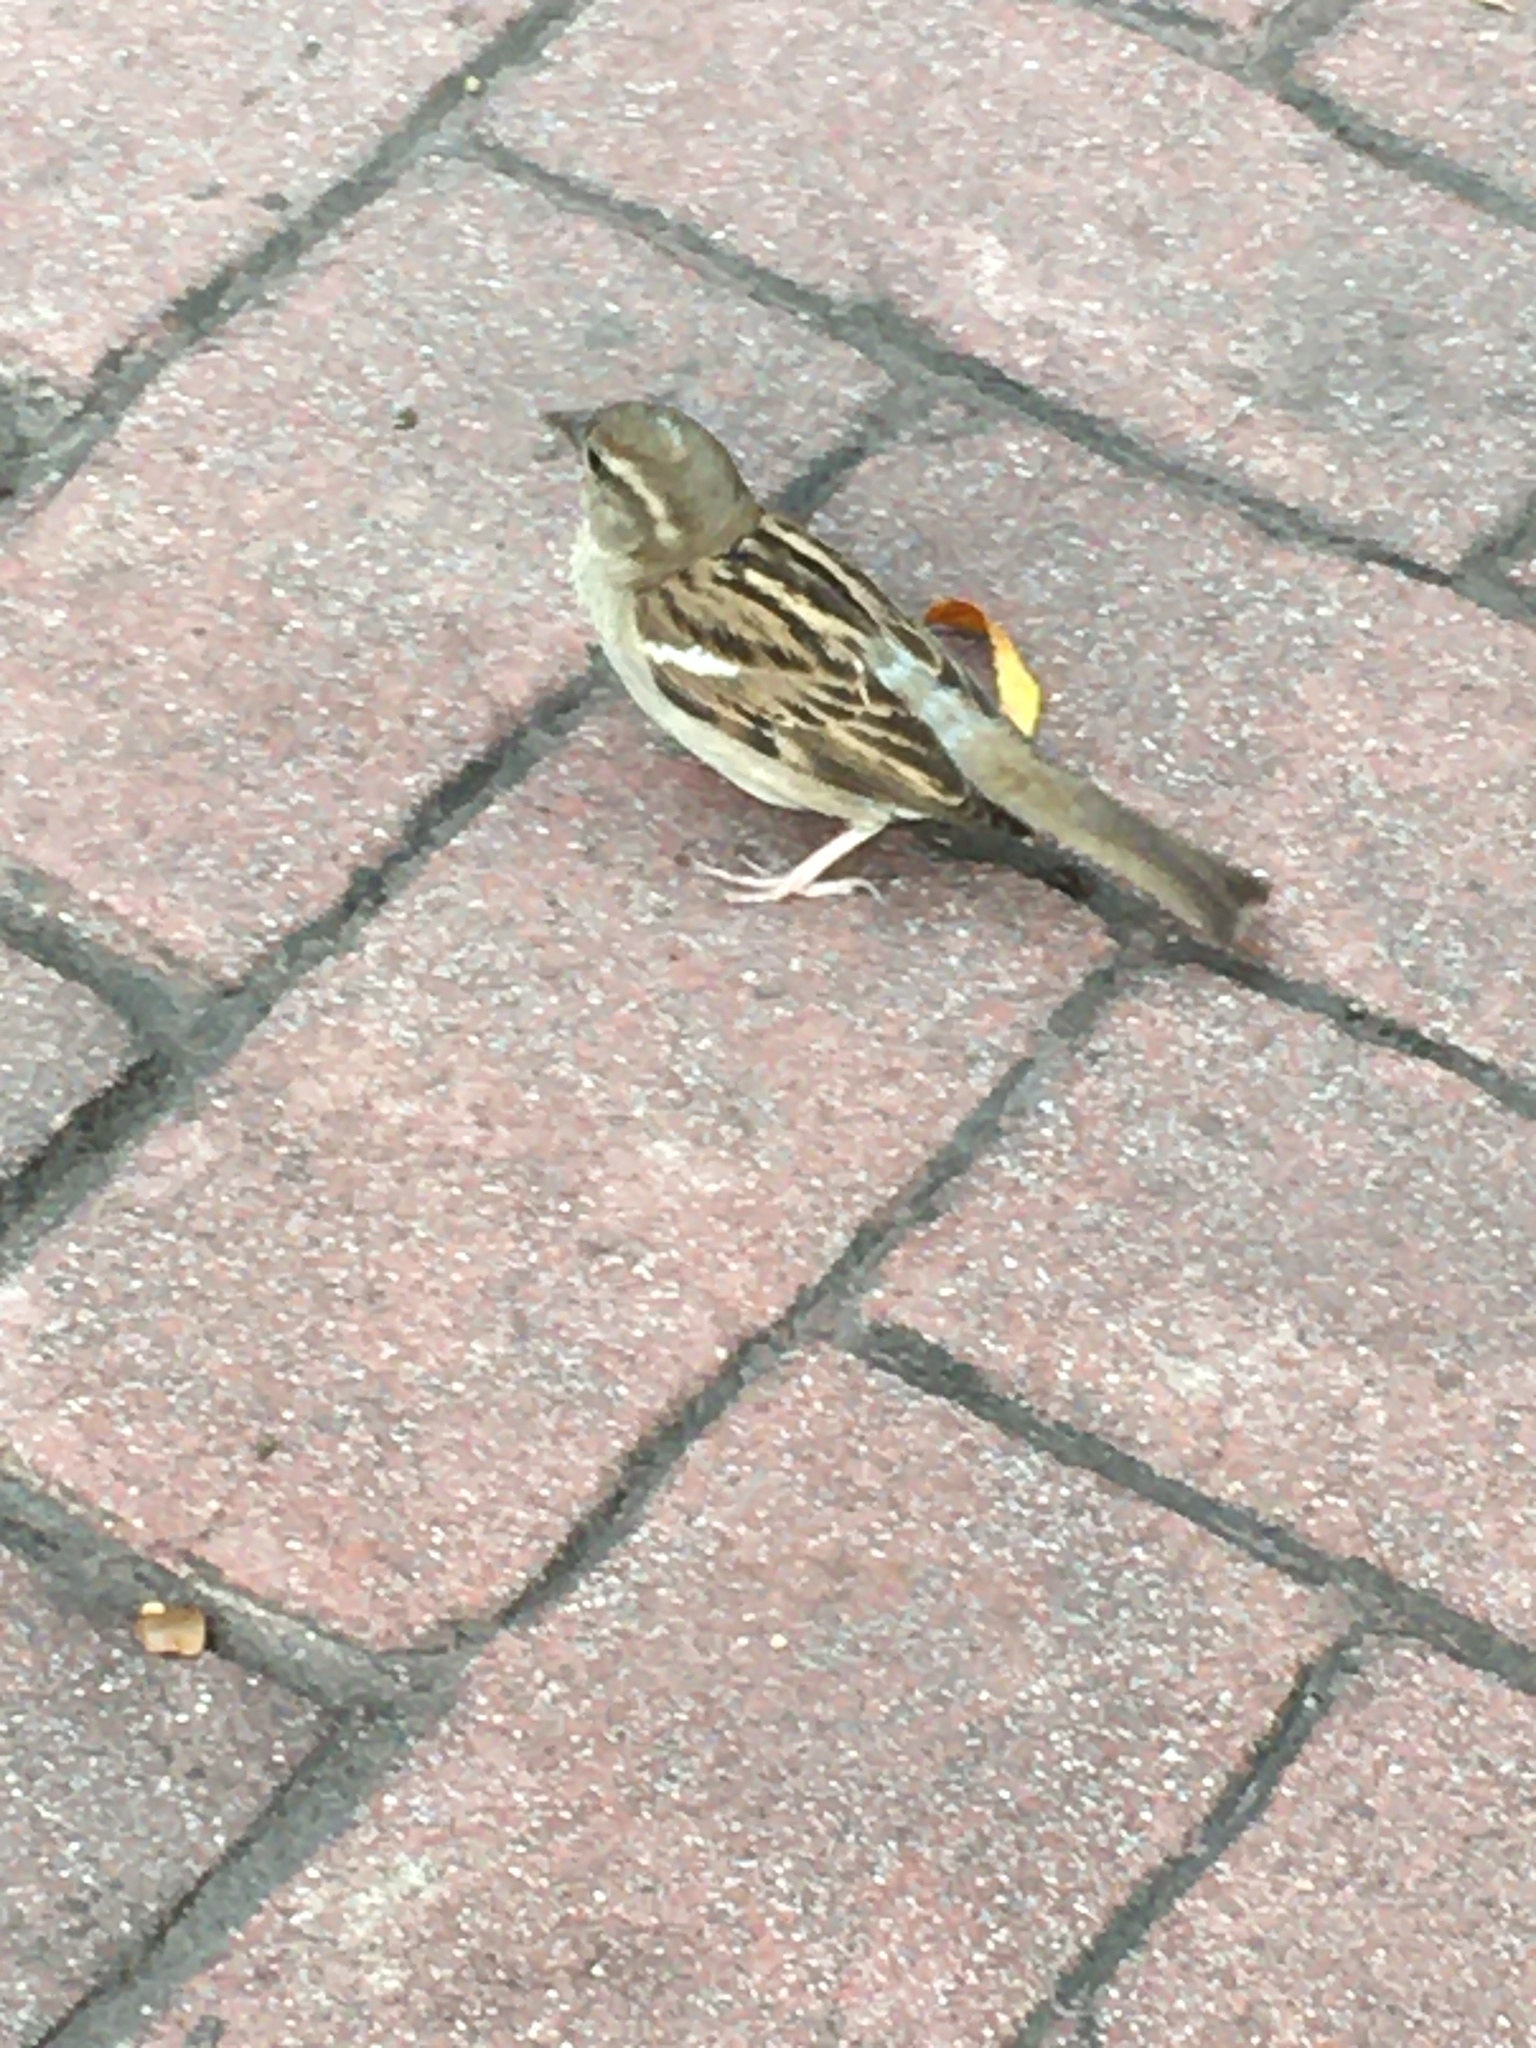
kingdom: Animalia
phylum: Chordata
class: Aves
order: Passeriformes
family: Passeridae
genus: Passer
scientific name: Passer domesticus
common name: House sparrow
